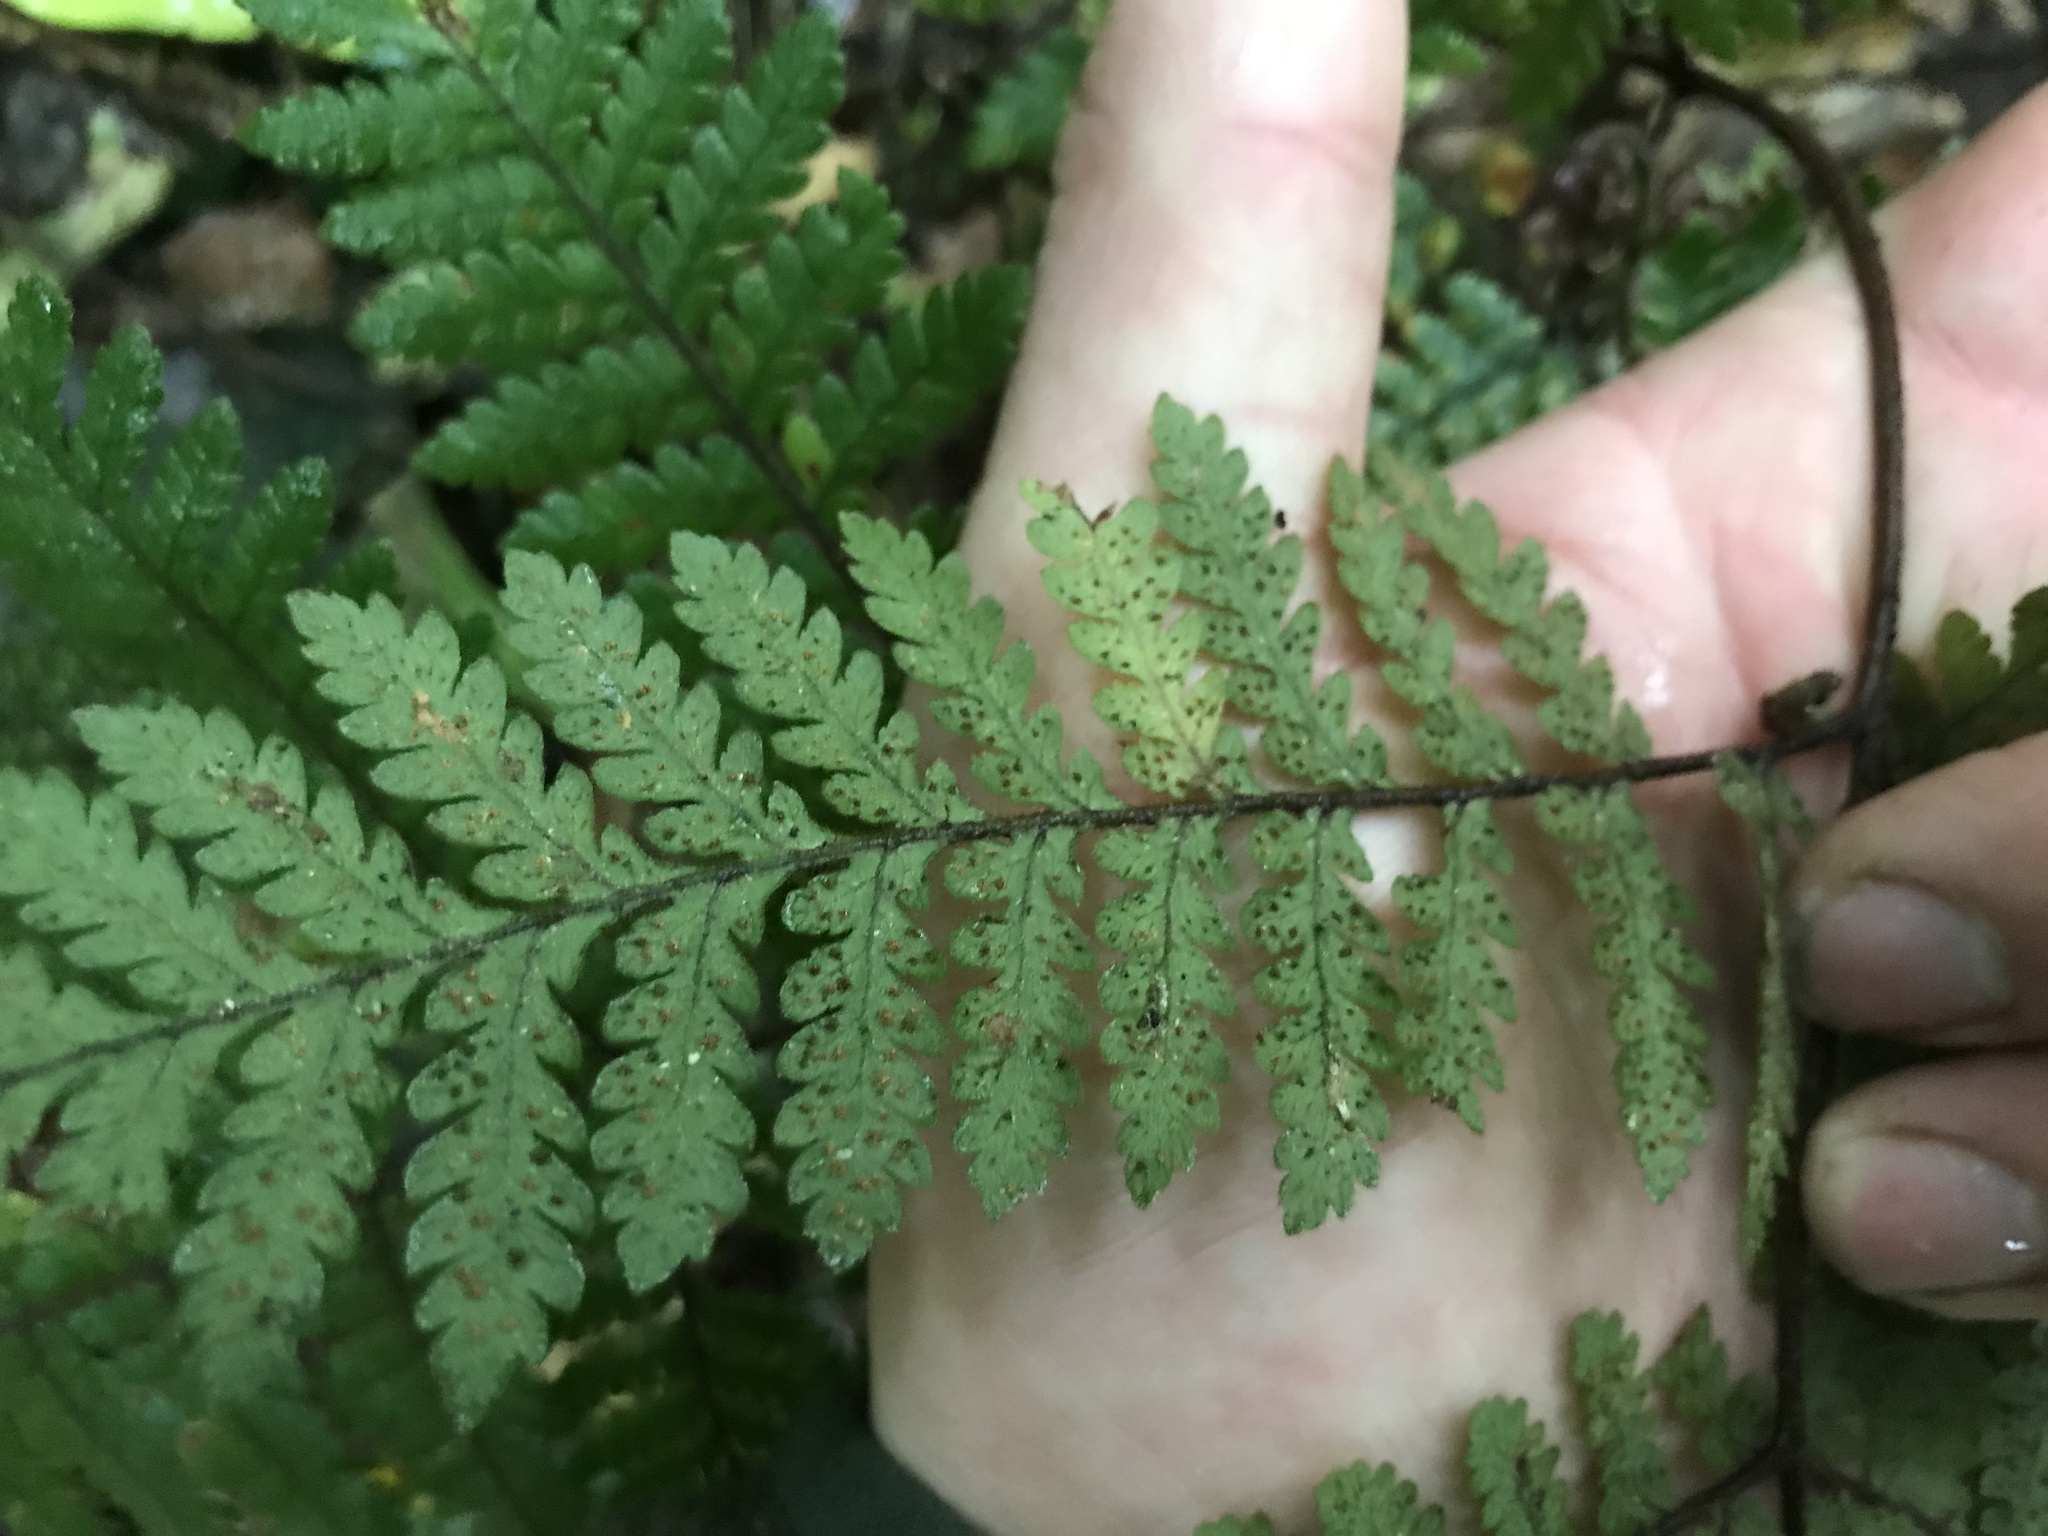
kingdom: Plantae
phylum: Tracheophyta
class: Polypodiopsida
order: Polypodiales
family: Dryopteridaceae
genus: Lastreopsis
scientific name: Lastreopsis velutina
